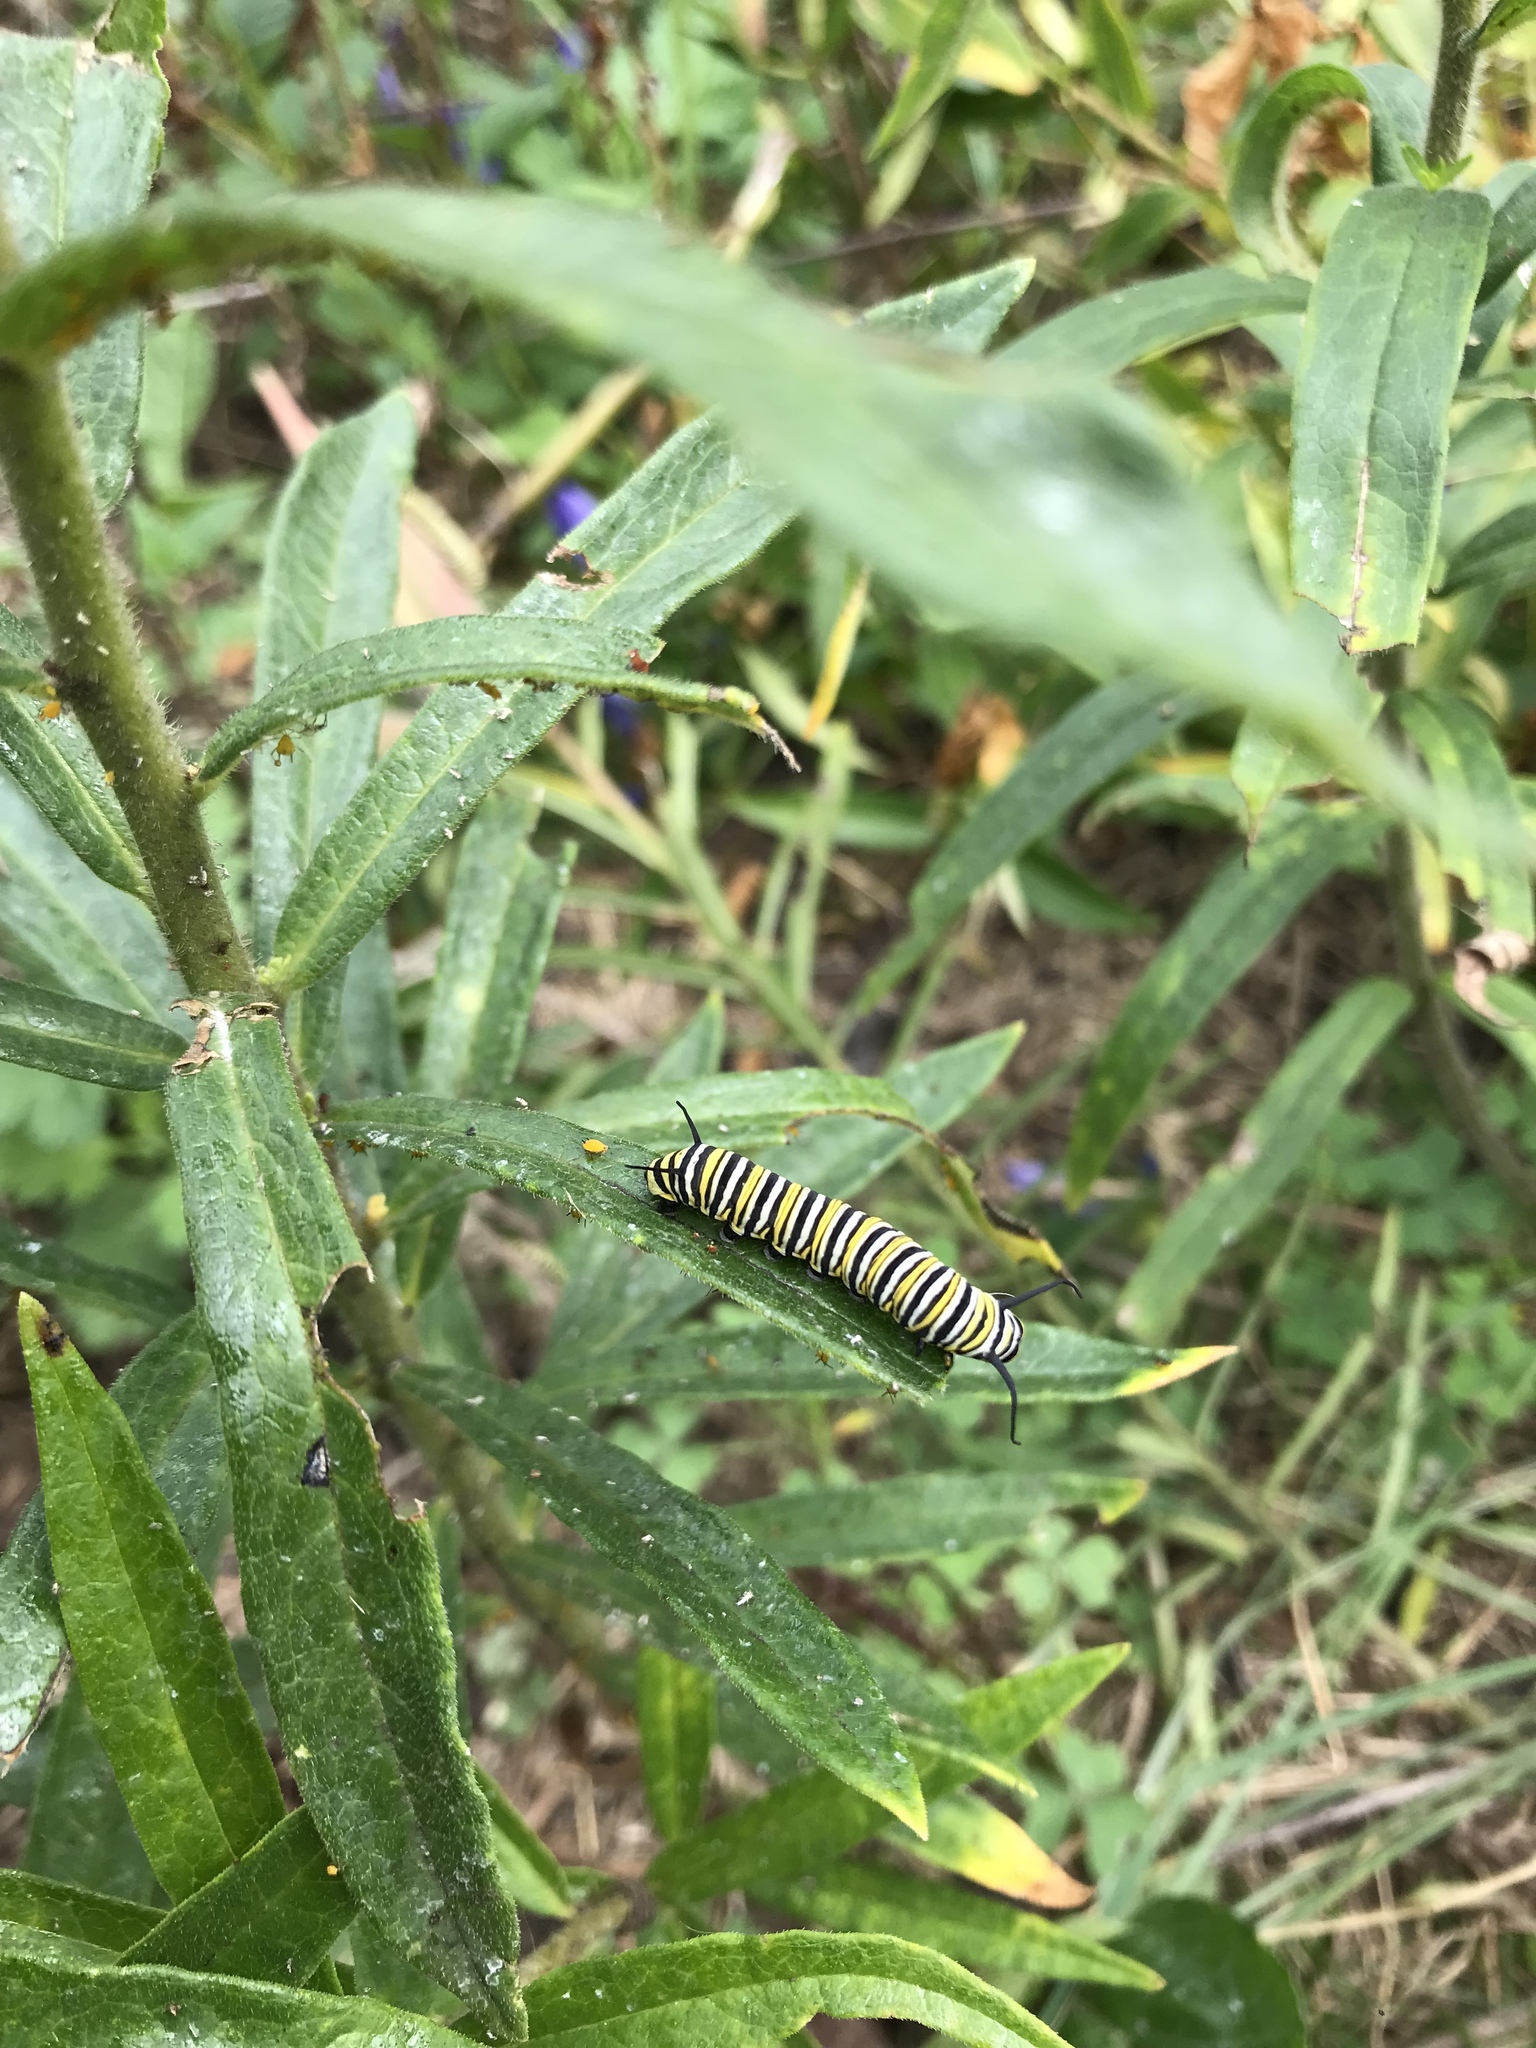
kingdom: Animalia
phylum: Arthropoda
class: Insecta
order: Lepidoptera
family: Nymphalidae
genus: Danaus
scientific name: Danaus plexippus
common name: Monarch
